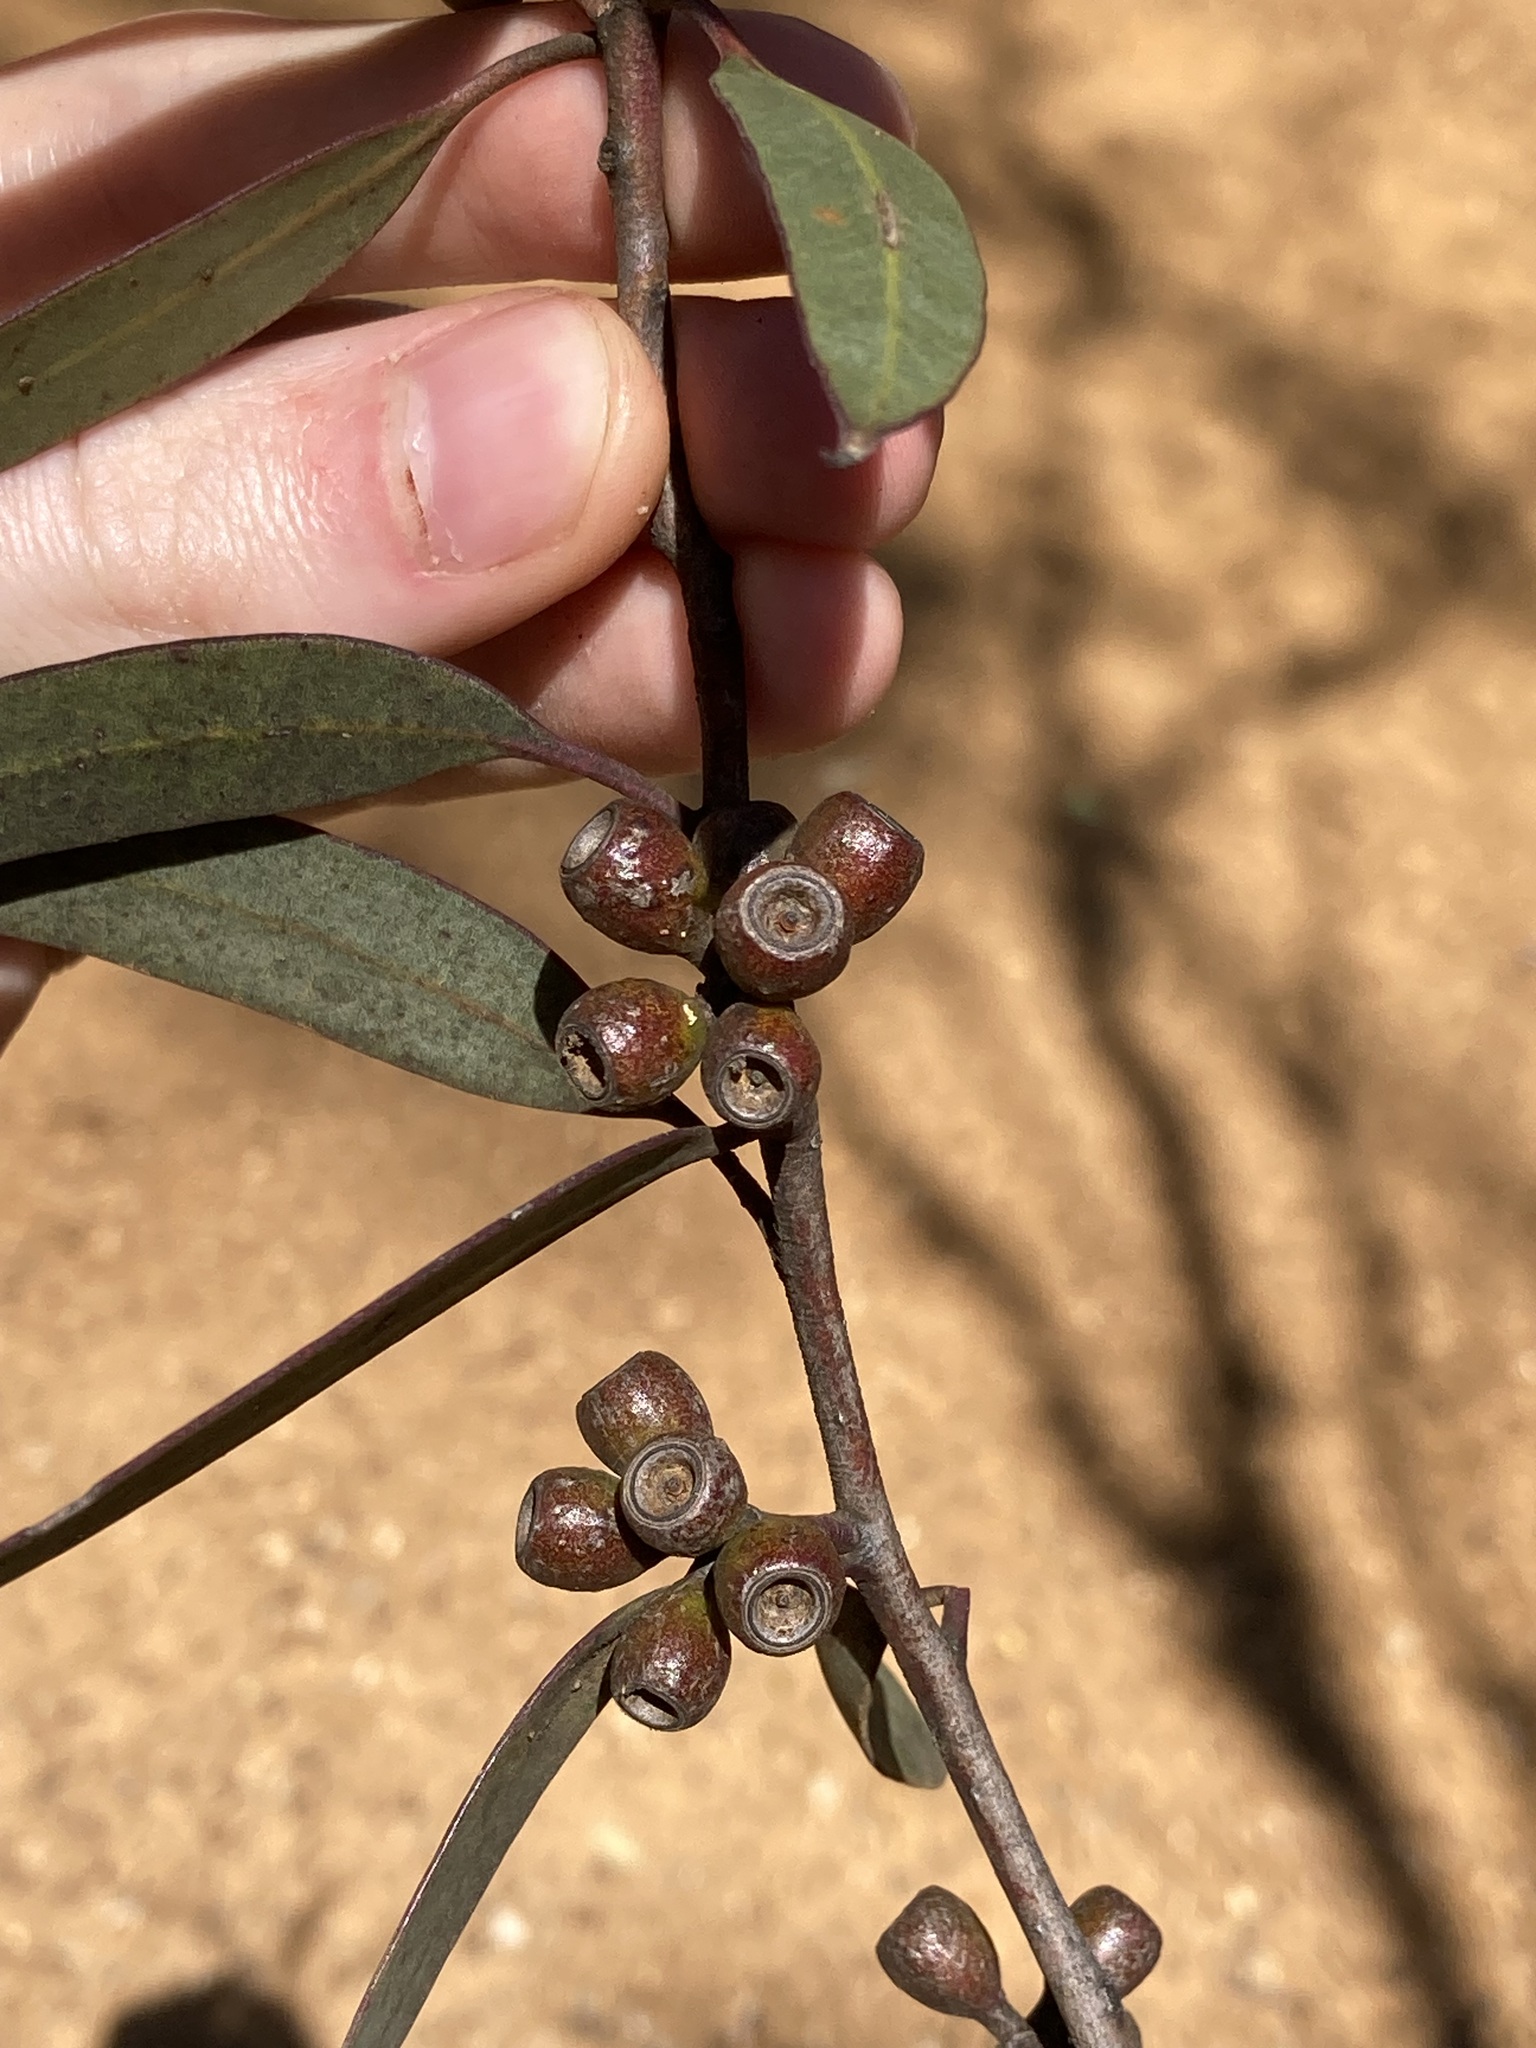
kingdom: Plantae
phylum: Tracheophyta
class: Magnoliopsida
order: Myrtales
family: Myrtaceae
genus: Eucalyptus
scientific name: Eucalyptus leptocalyx
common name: Hopetoun mallee
